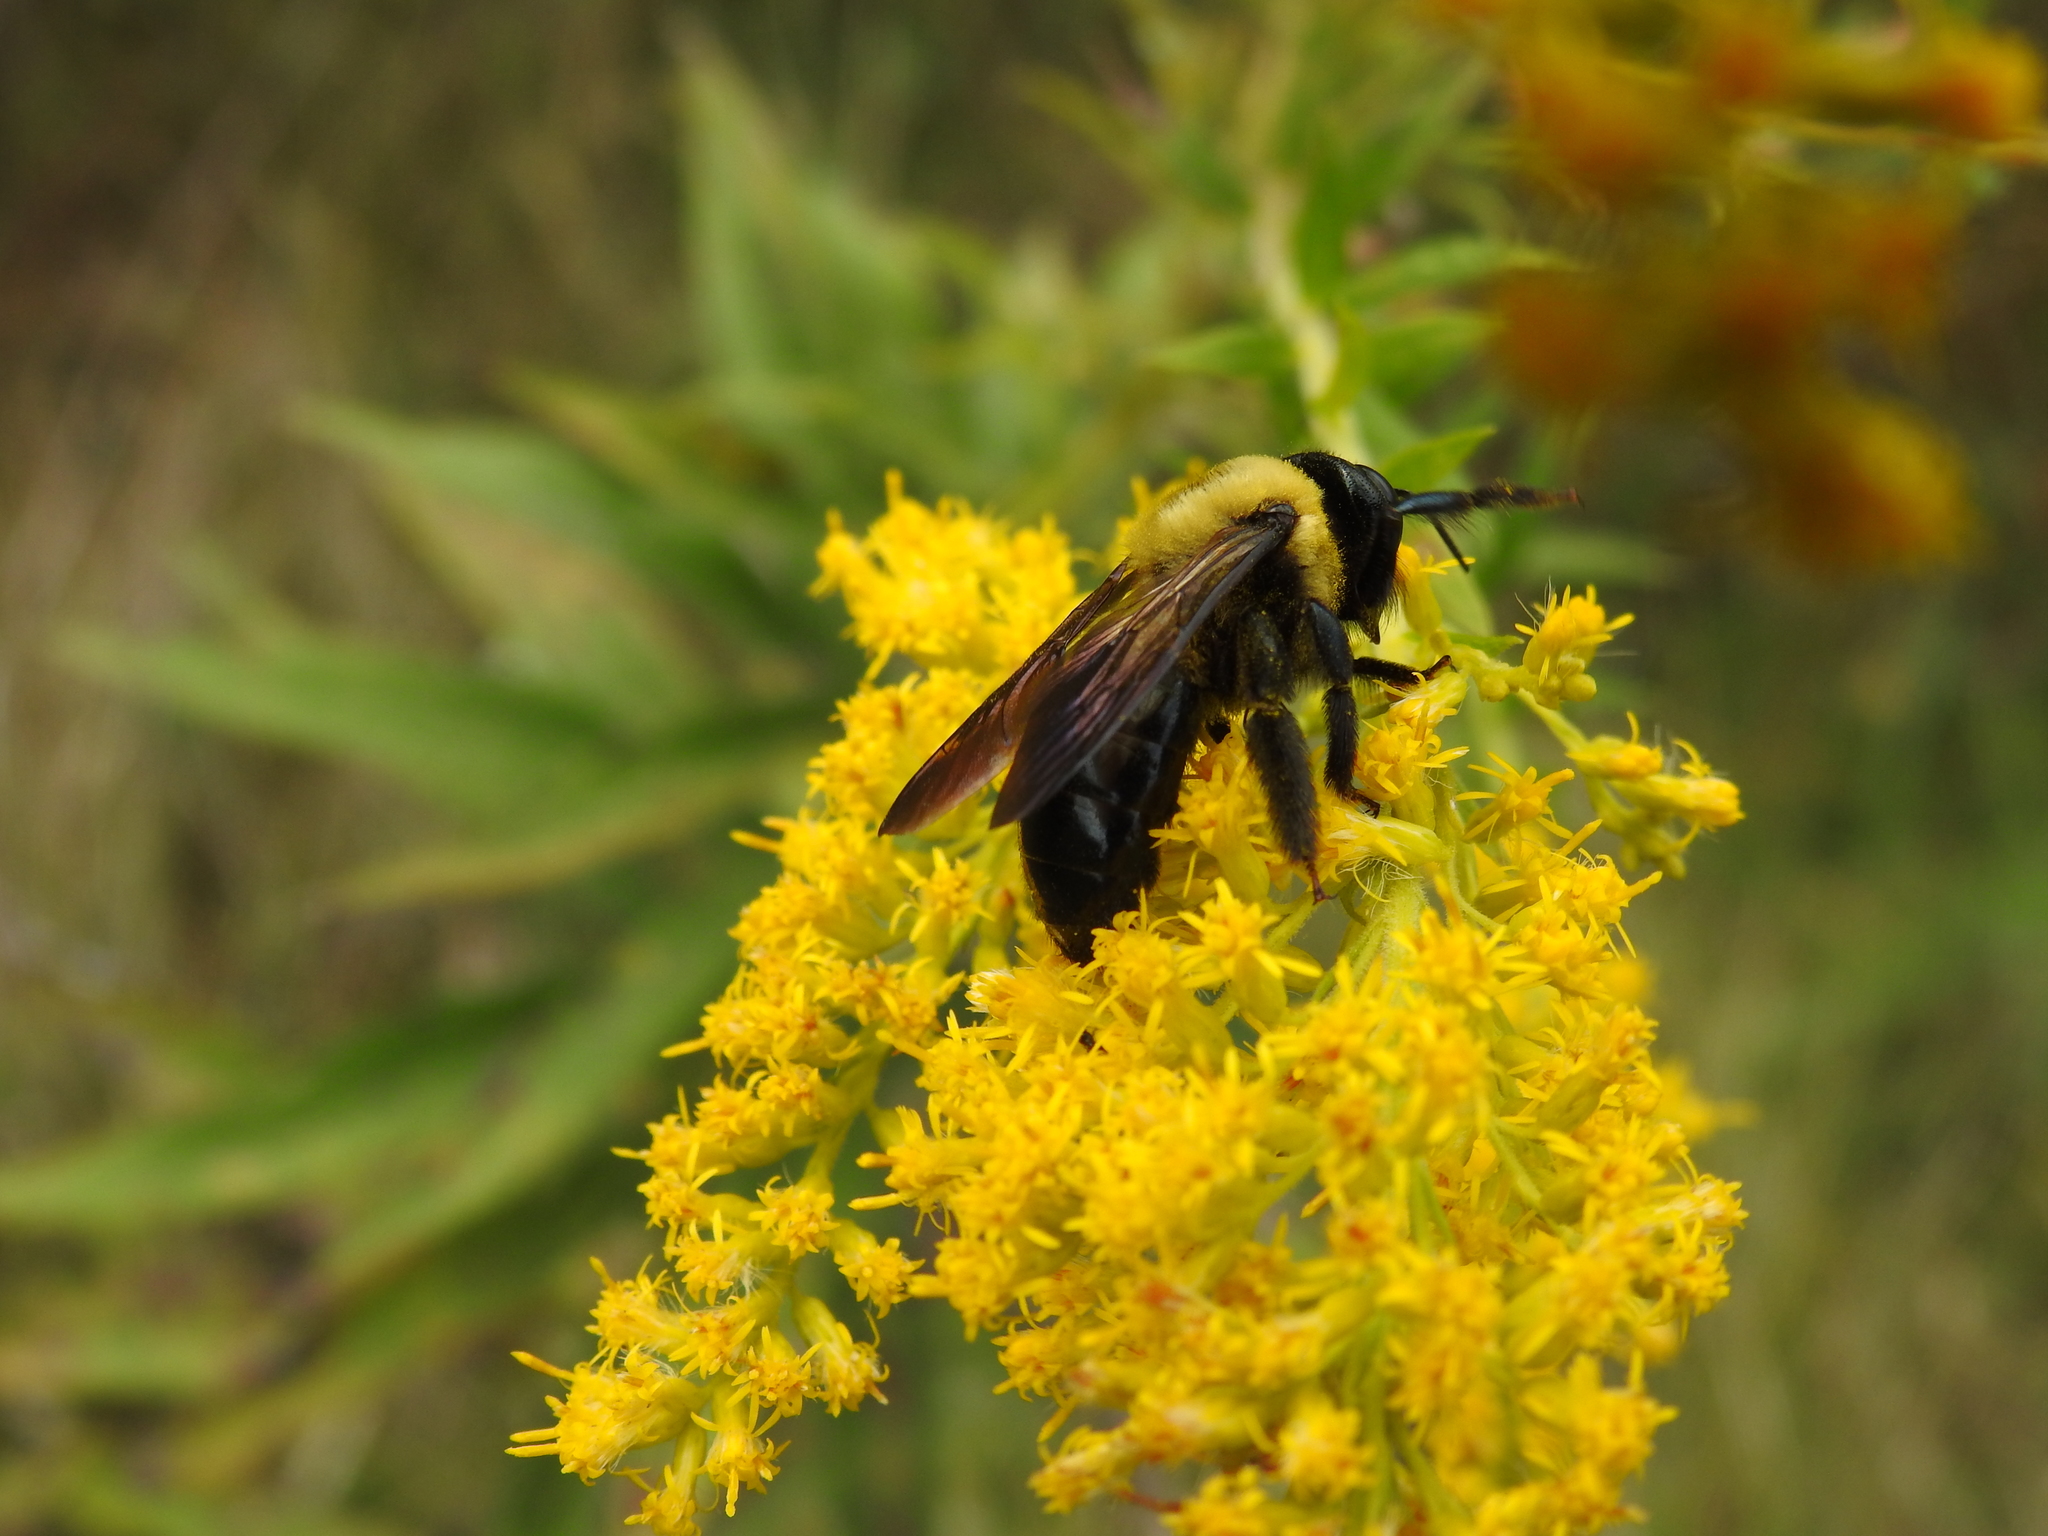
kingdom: Animalia
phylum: Arthropoda
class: Insecta
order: Hymenoptera
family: Apidae
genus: Xylocopa
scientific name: Xylocopa virginica
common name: Carpenter bee
